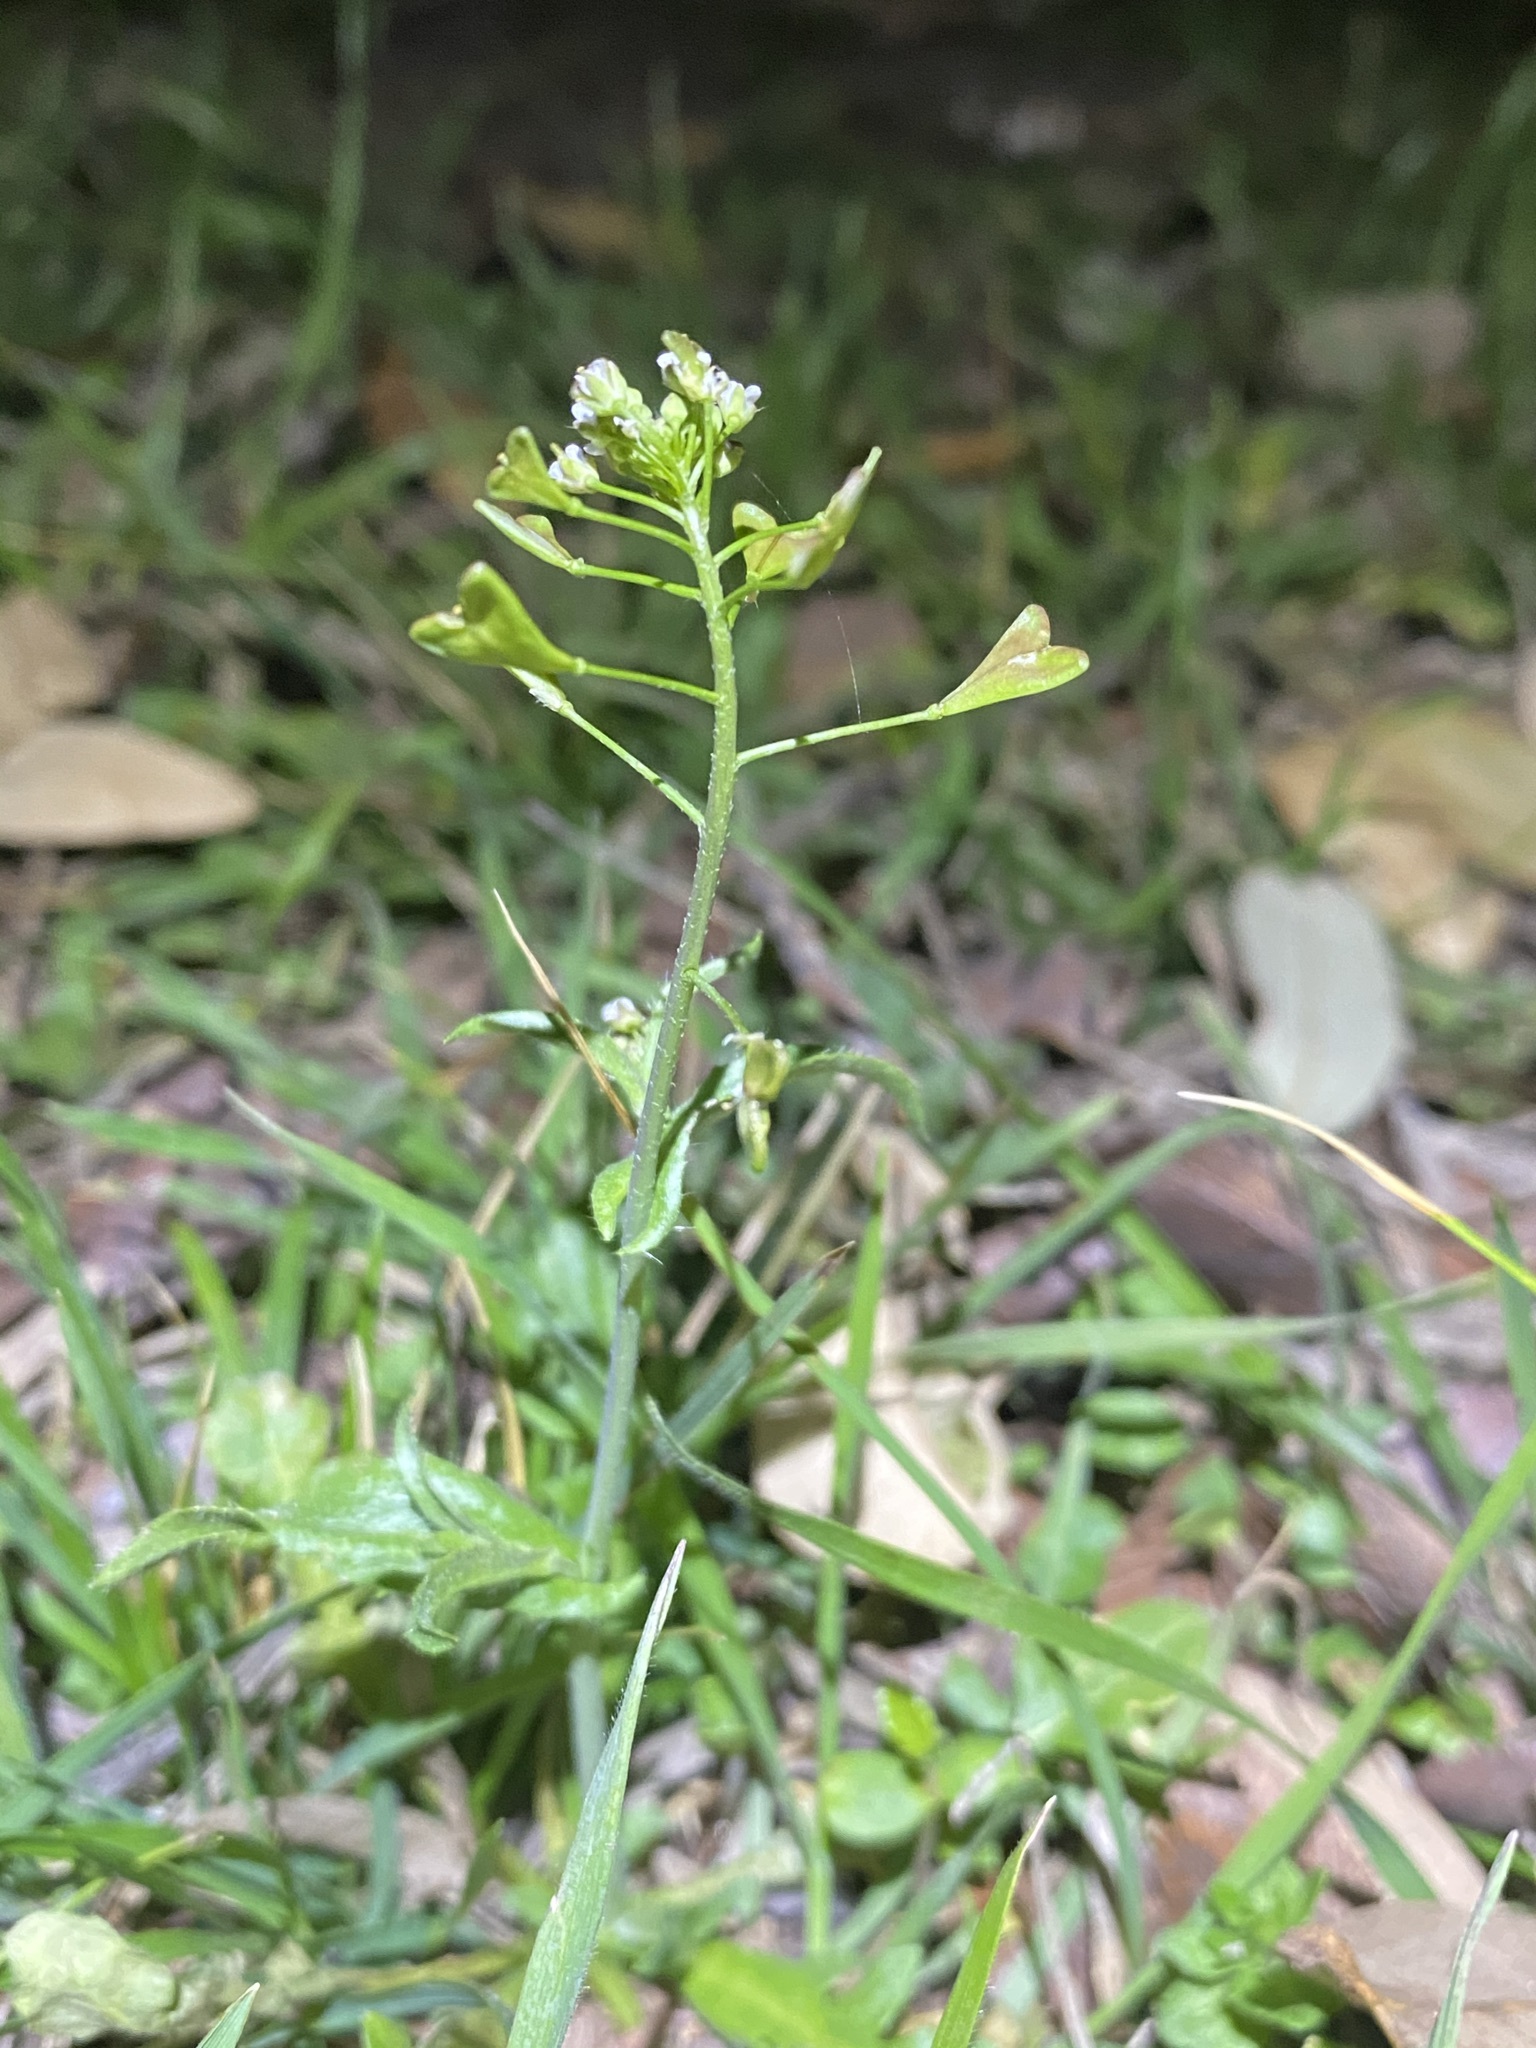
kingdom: Plantae
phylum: Tracheophyta
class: Magnoliopsida
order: Brassicales
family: Brassicaceae
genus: Capsella
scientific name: Capsella bursa-pastoris
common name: Shepherd's purse
